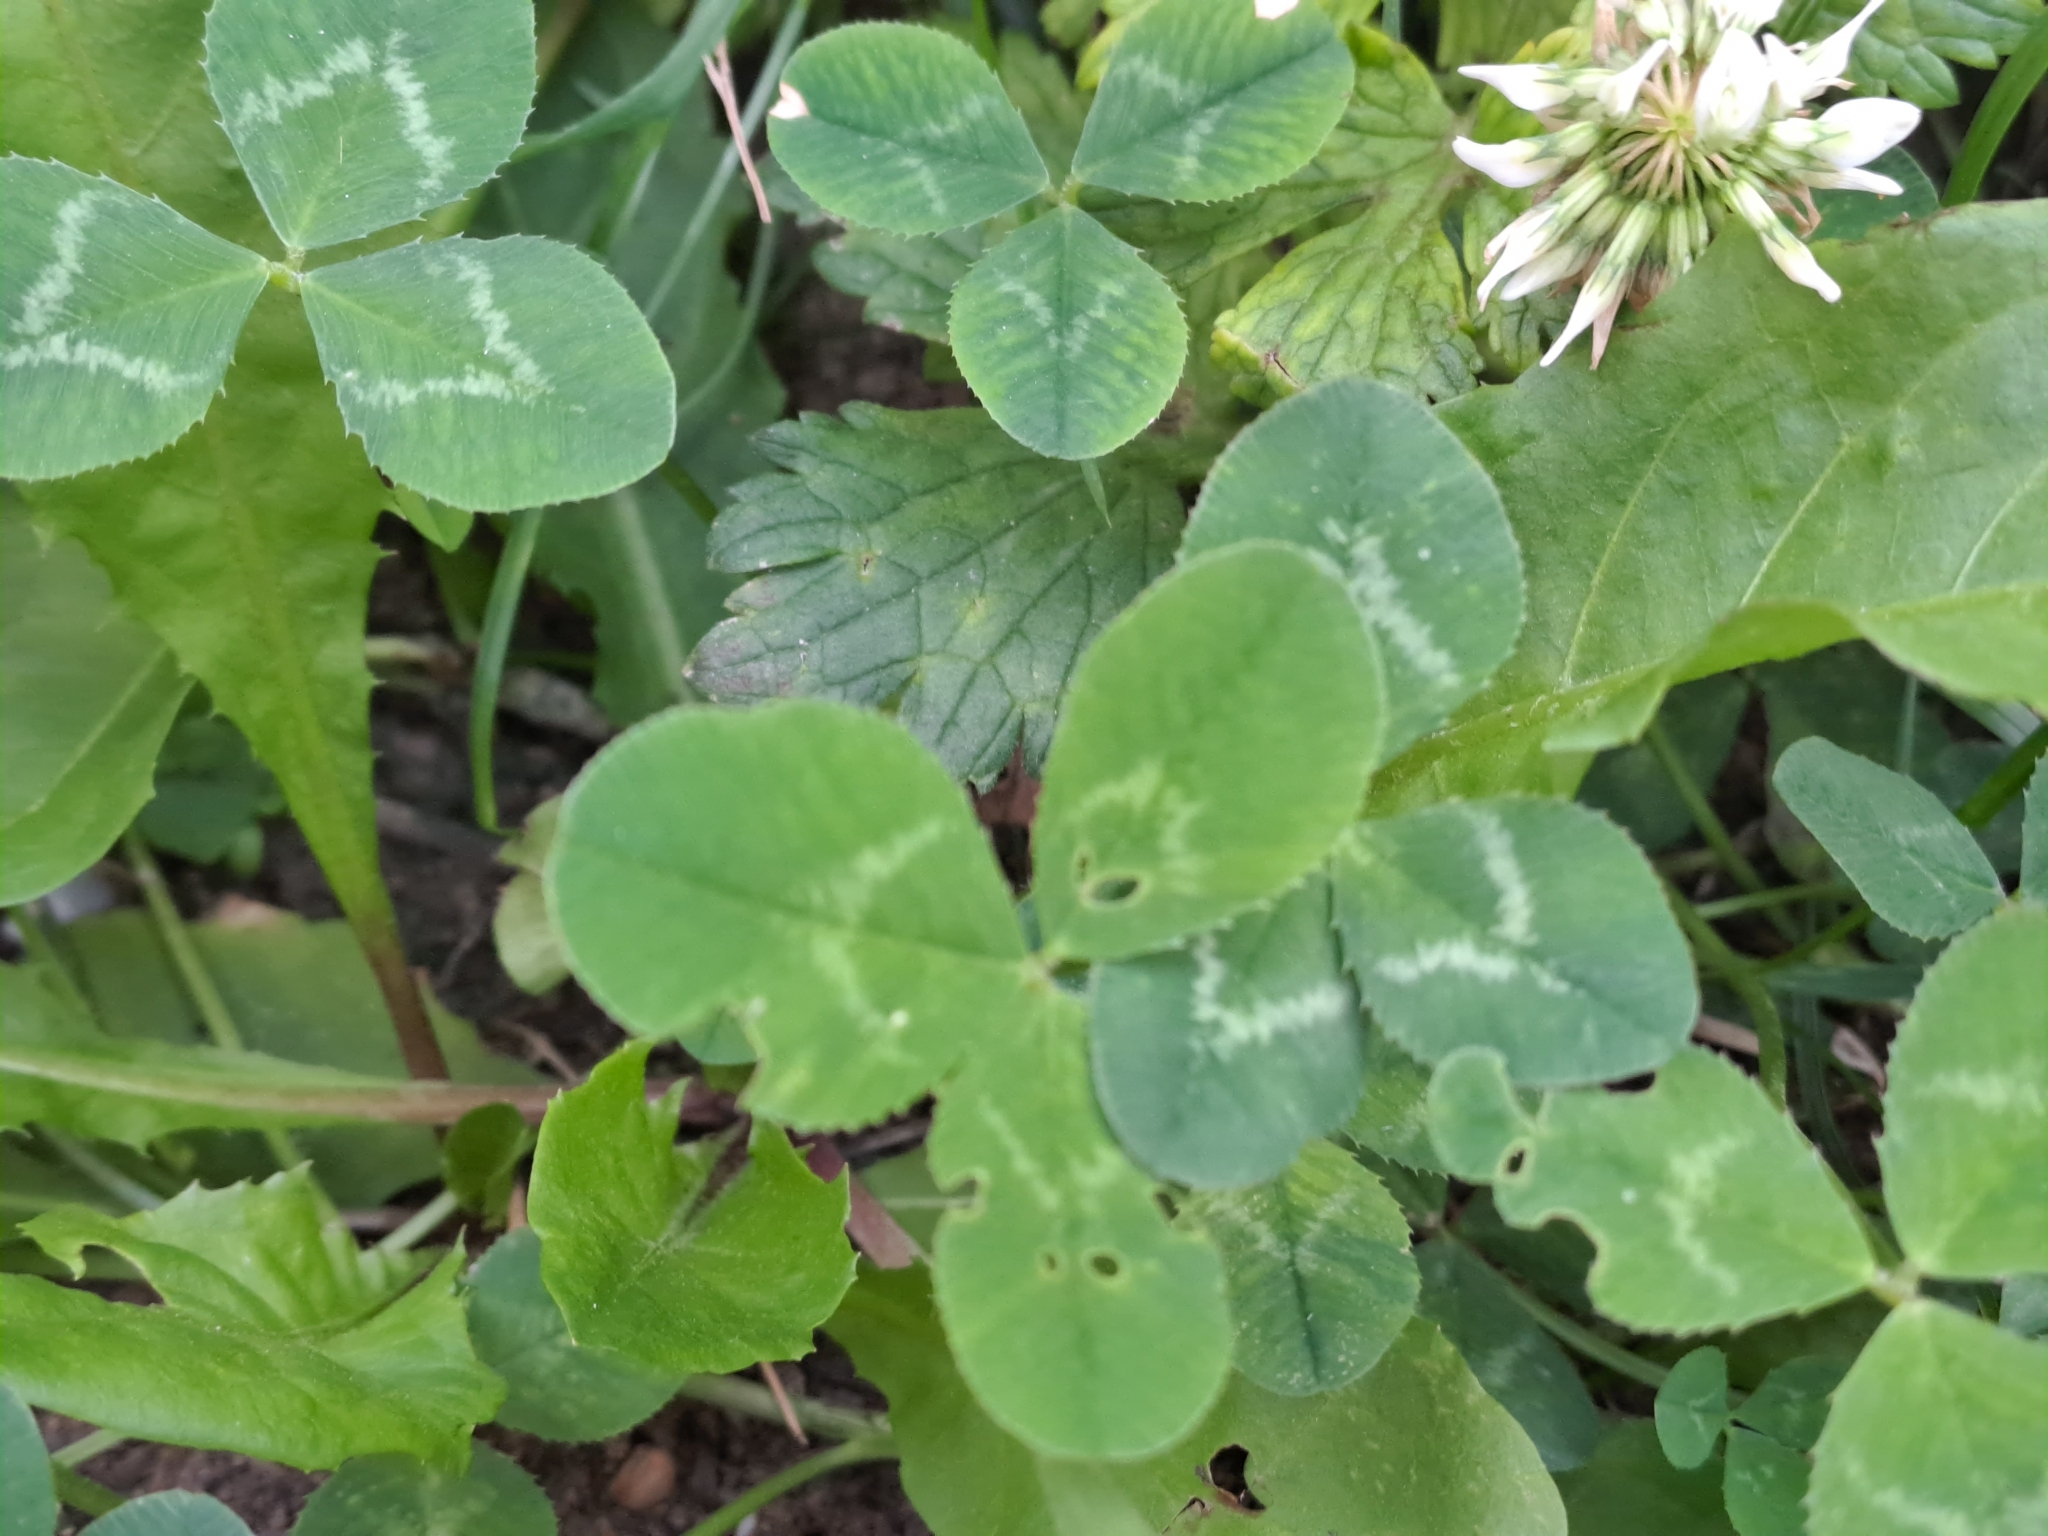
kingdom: Plantae
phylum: Tracheophyta
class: Magnoliopsida
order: Fabales
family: Fabaceae
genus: Trifolium
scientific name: Trifolium repens
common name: White clover
